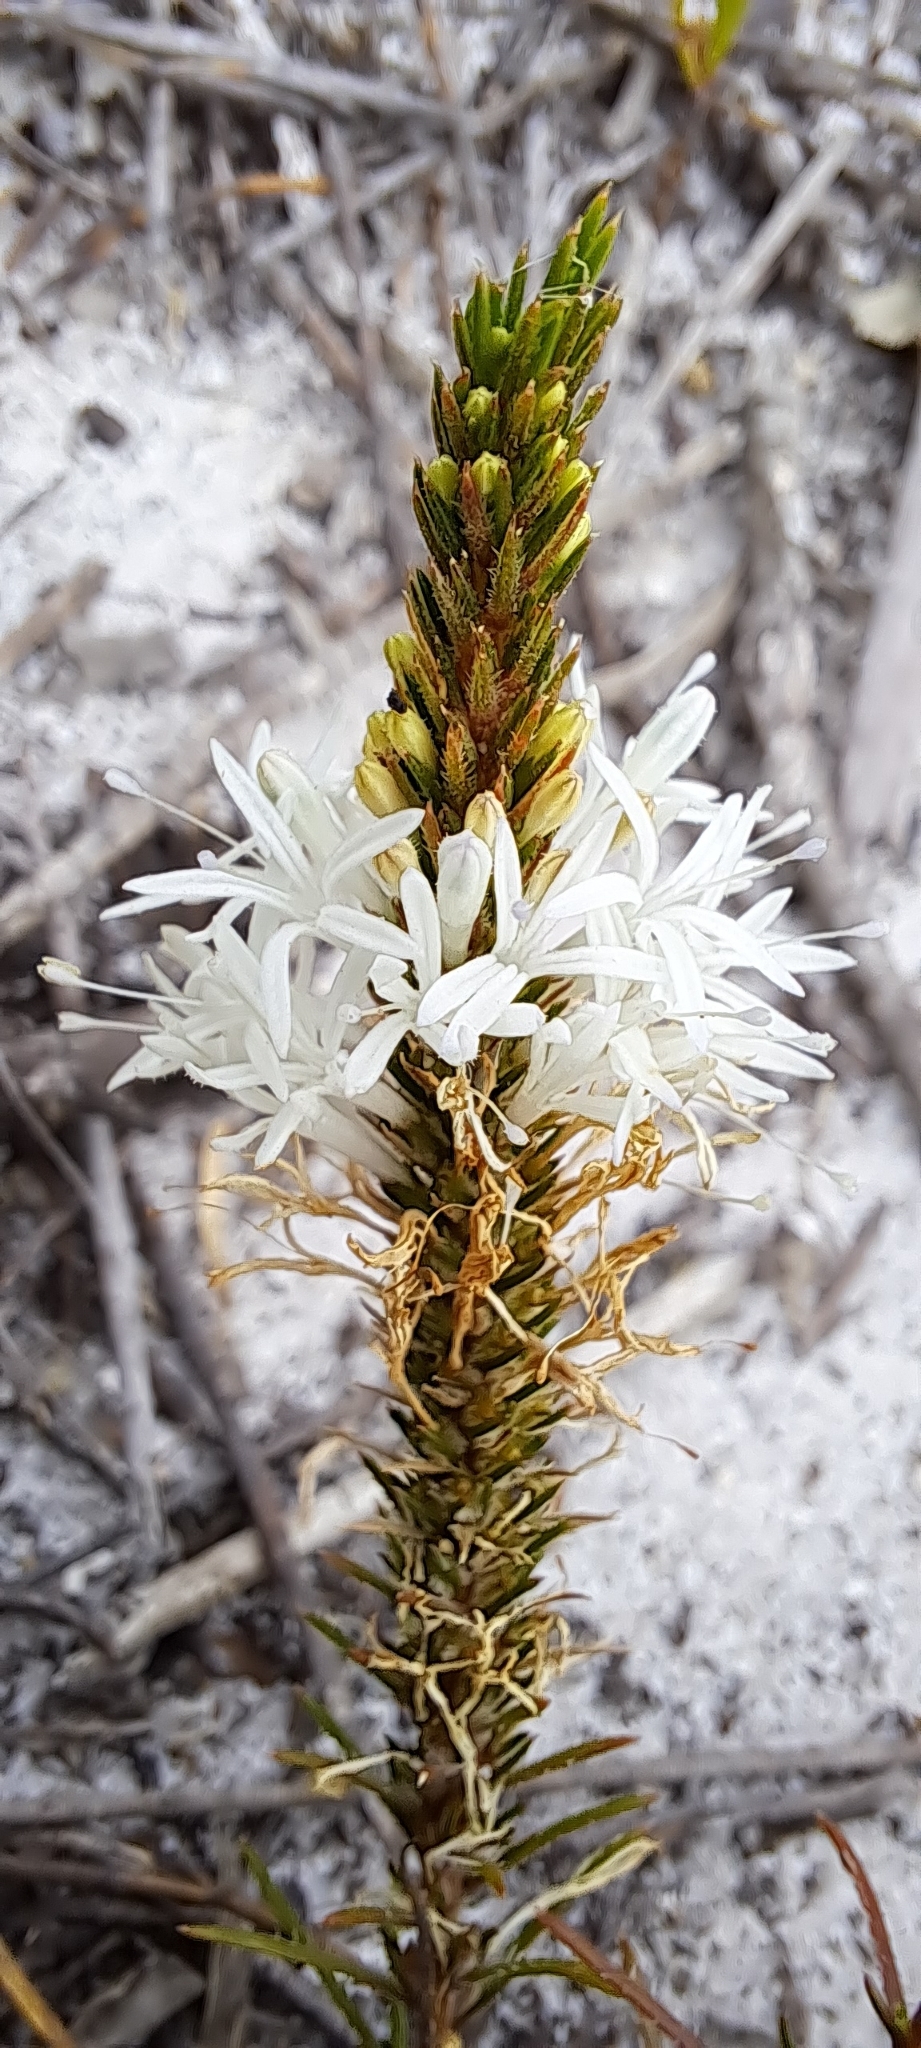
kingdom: Plantae
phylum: Tracheophyta
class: Magnoliopsida
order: Asterales
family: Campanulaceae
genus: Merciera
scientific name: Merciera leptoloba
